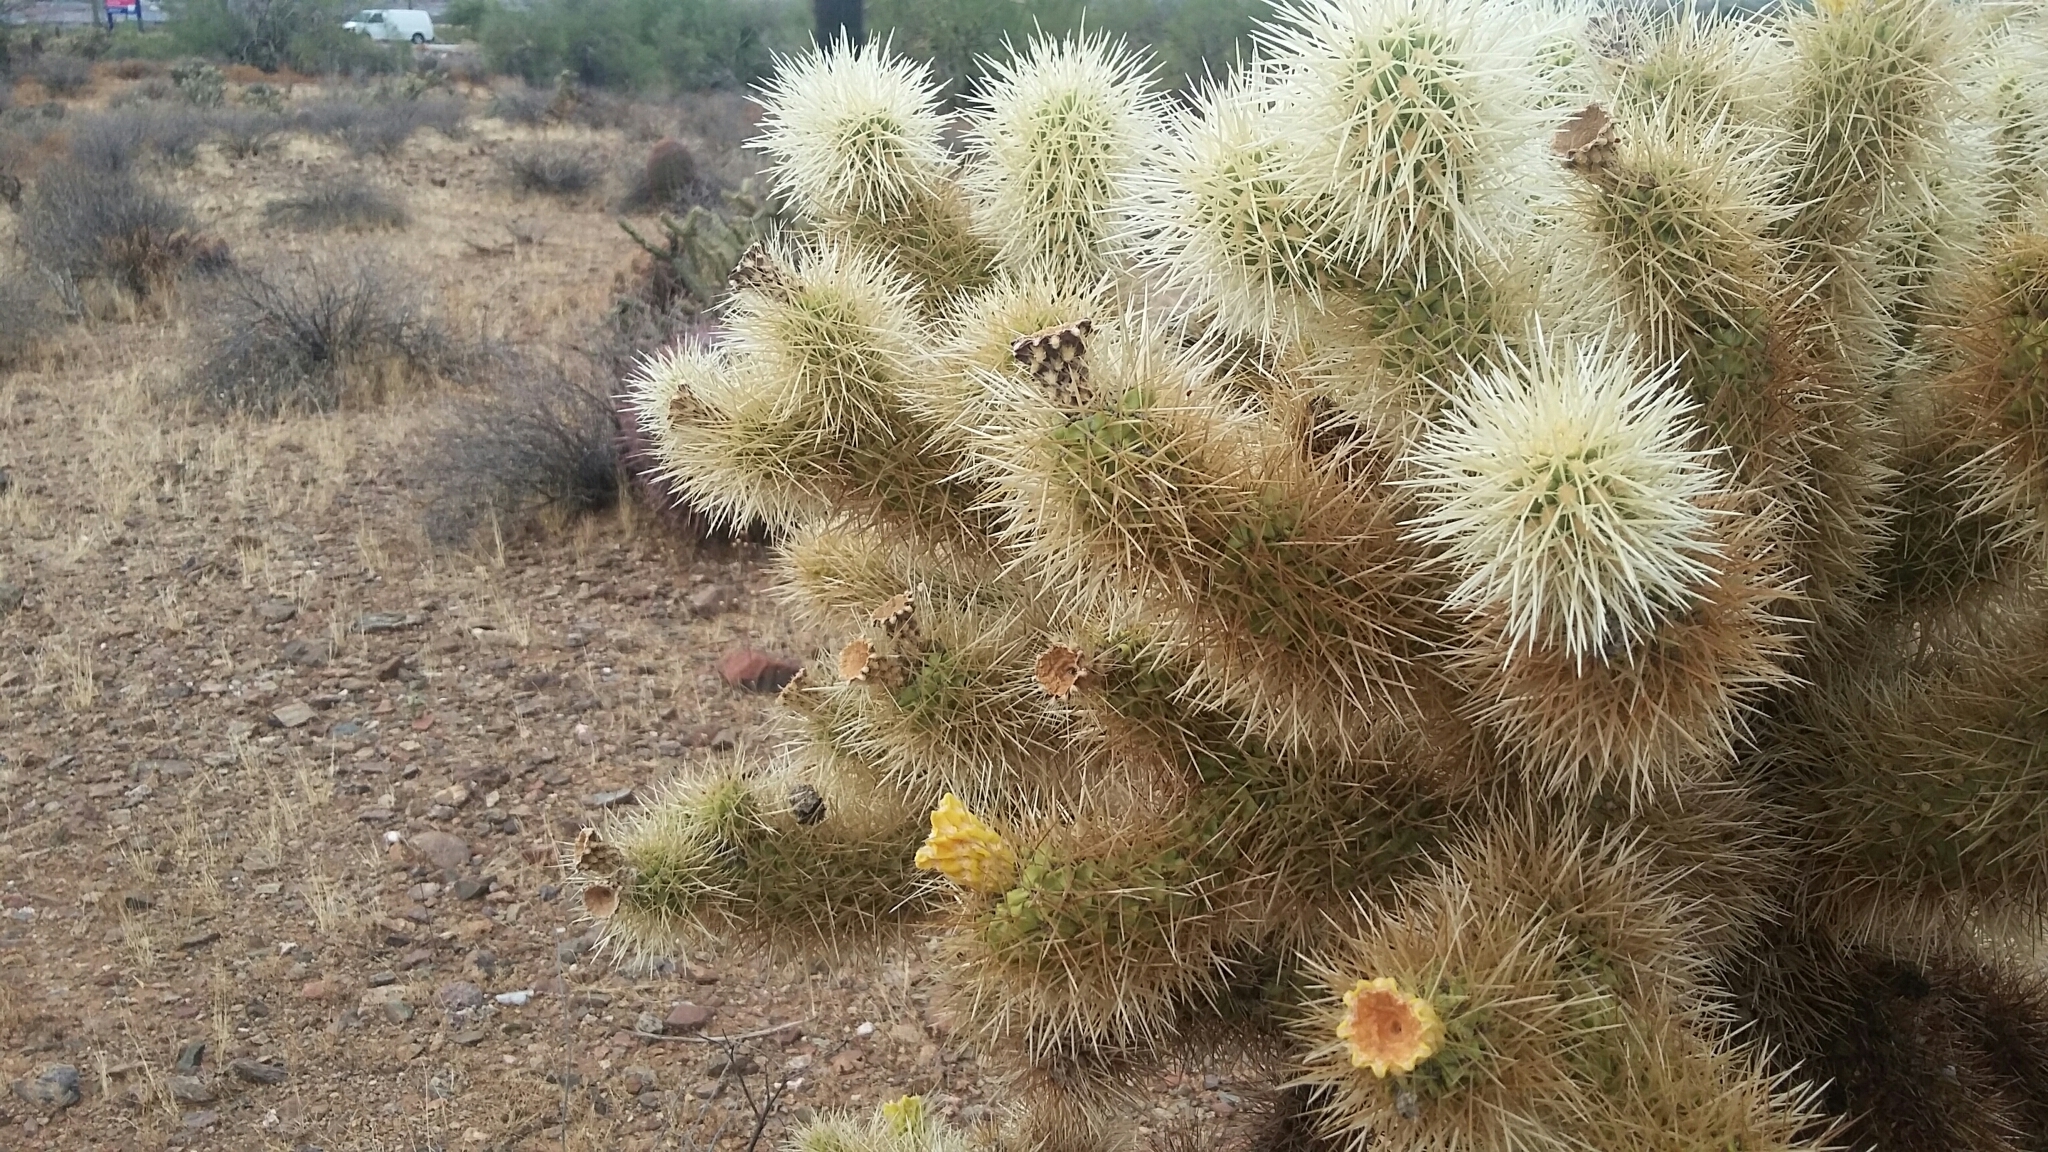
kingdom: Plantae
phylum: Tracheophyta
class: Magnoliopsida
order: Caryophyllales
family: Cactaceae
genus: Cylindropuntia
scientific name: Cylindropuntia fosbergii
